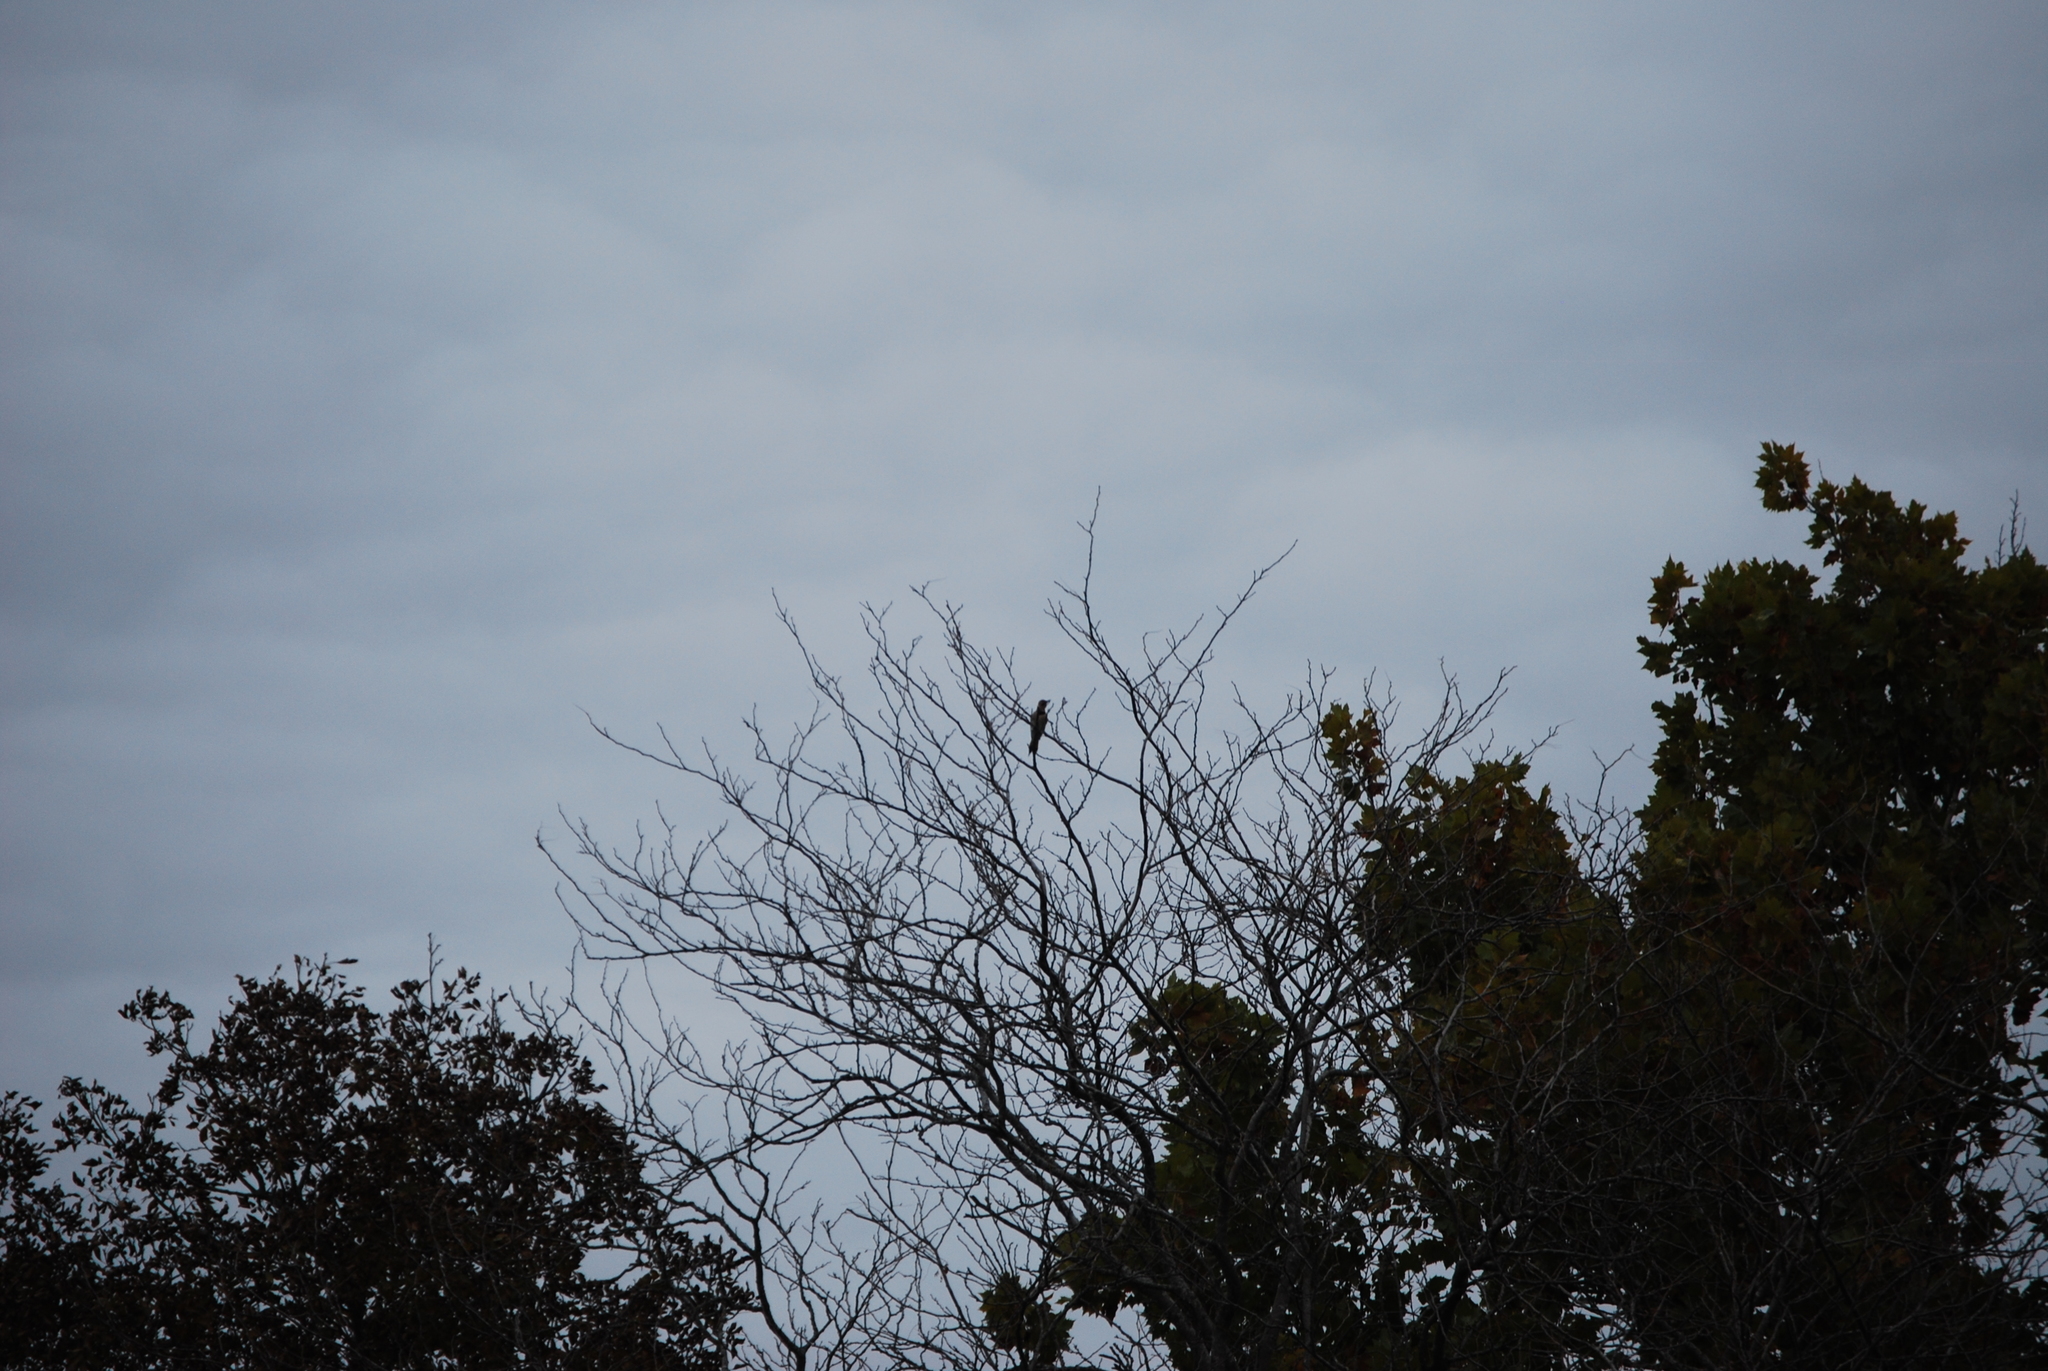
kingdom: Animalia
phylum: Chordata
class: Aves
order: Piciformes
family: Picidae
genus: Colaptes
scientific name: Colaptes auratus
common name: Northern flicker
